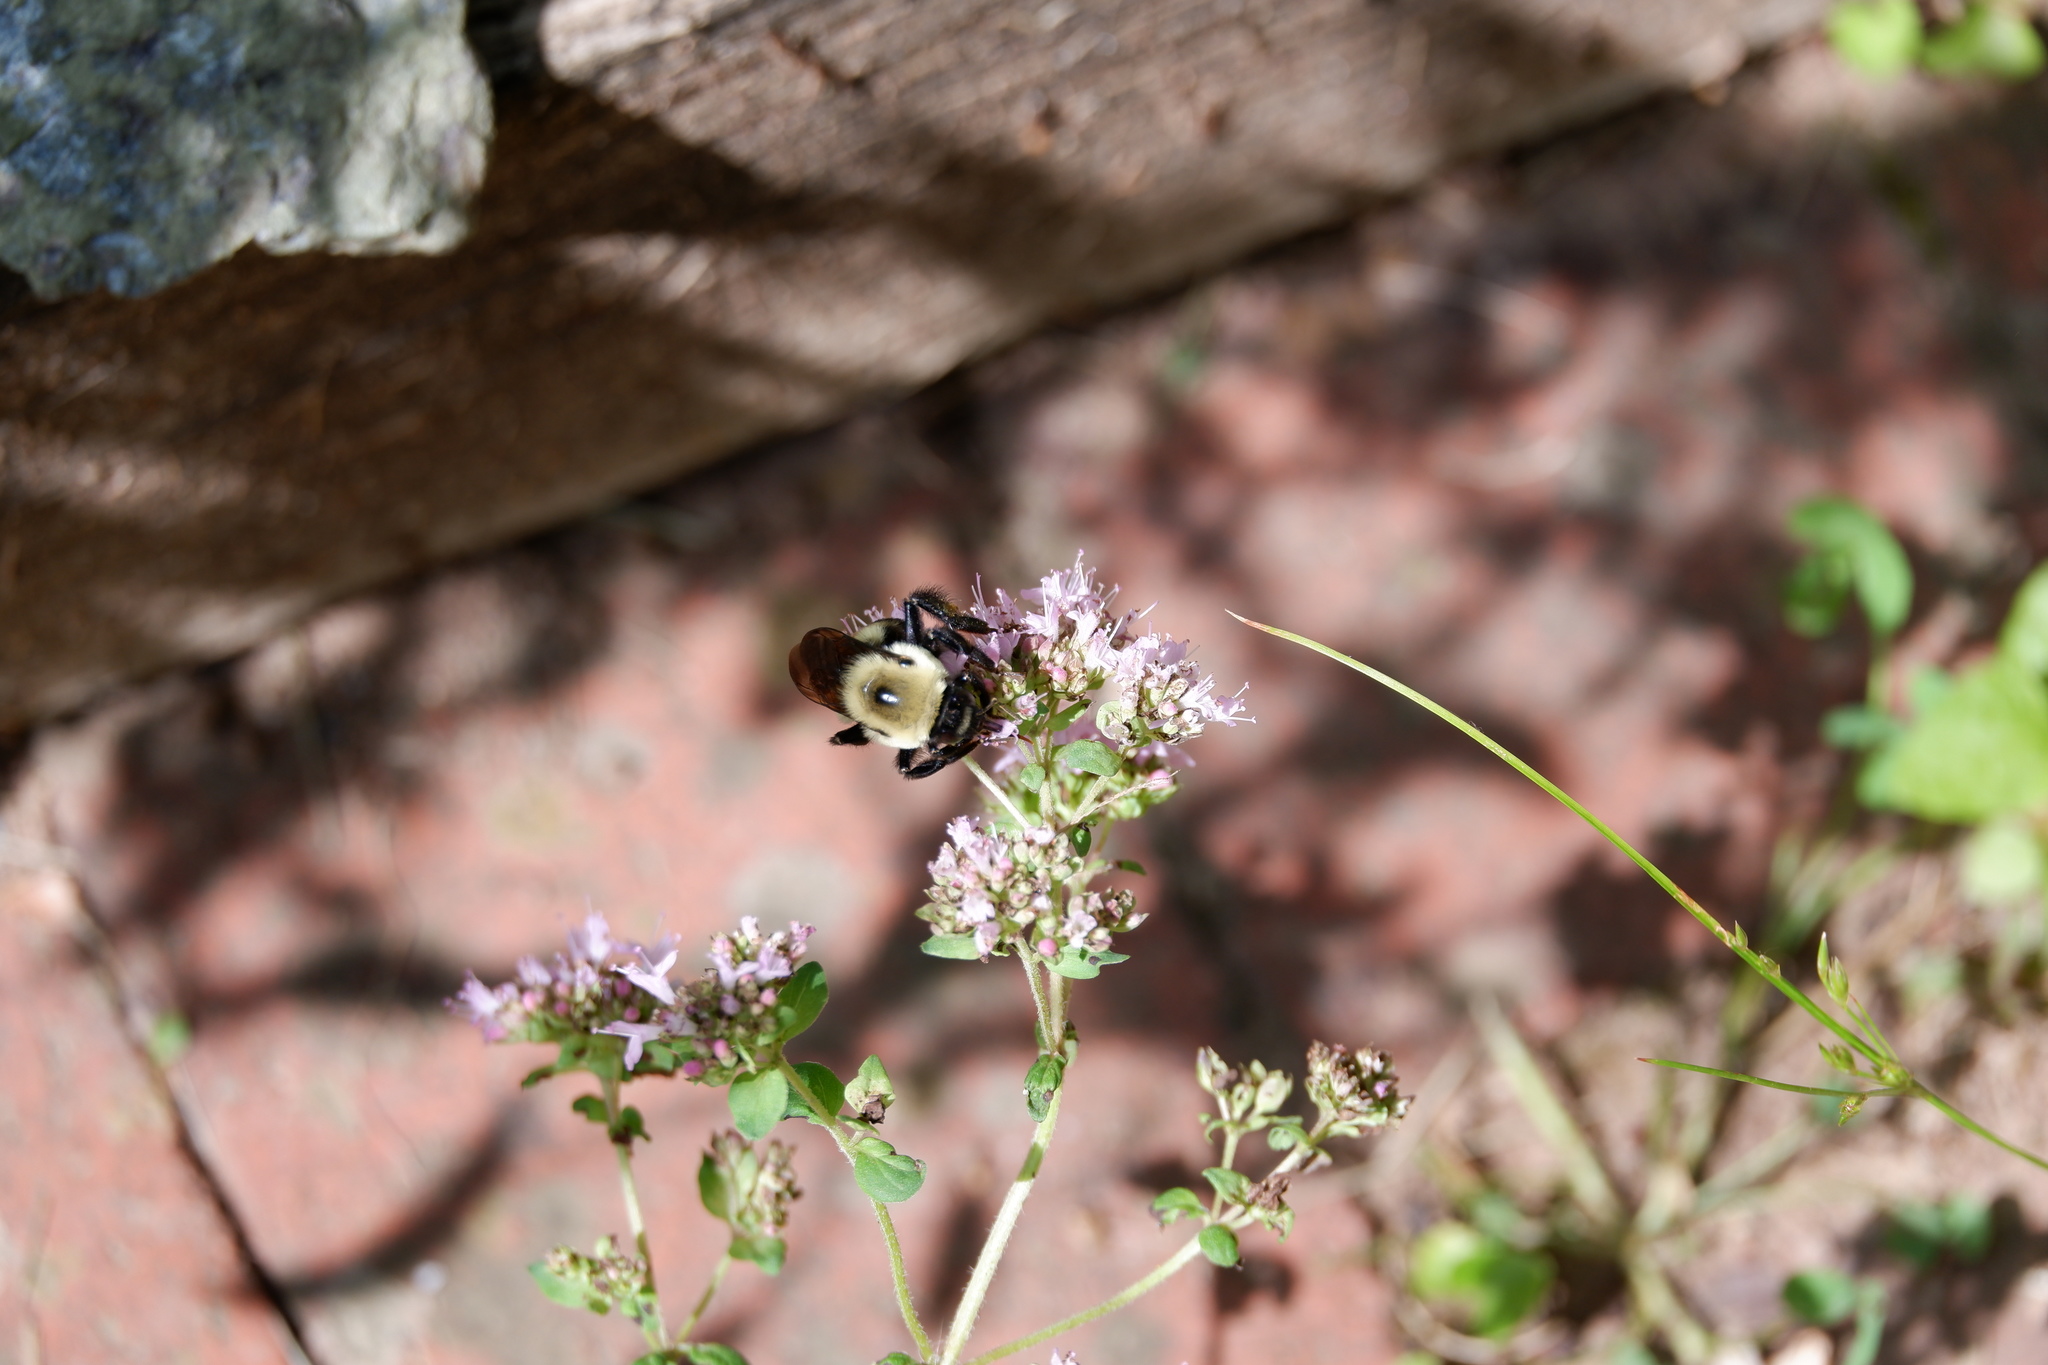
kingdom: Animalia
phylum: Arthropoda
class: Insecta
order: Hymenoptera
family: Apidae
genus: Bombus
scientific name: Bombus griseocollis
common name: Brown-belted bumble bee
